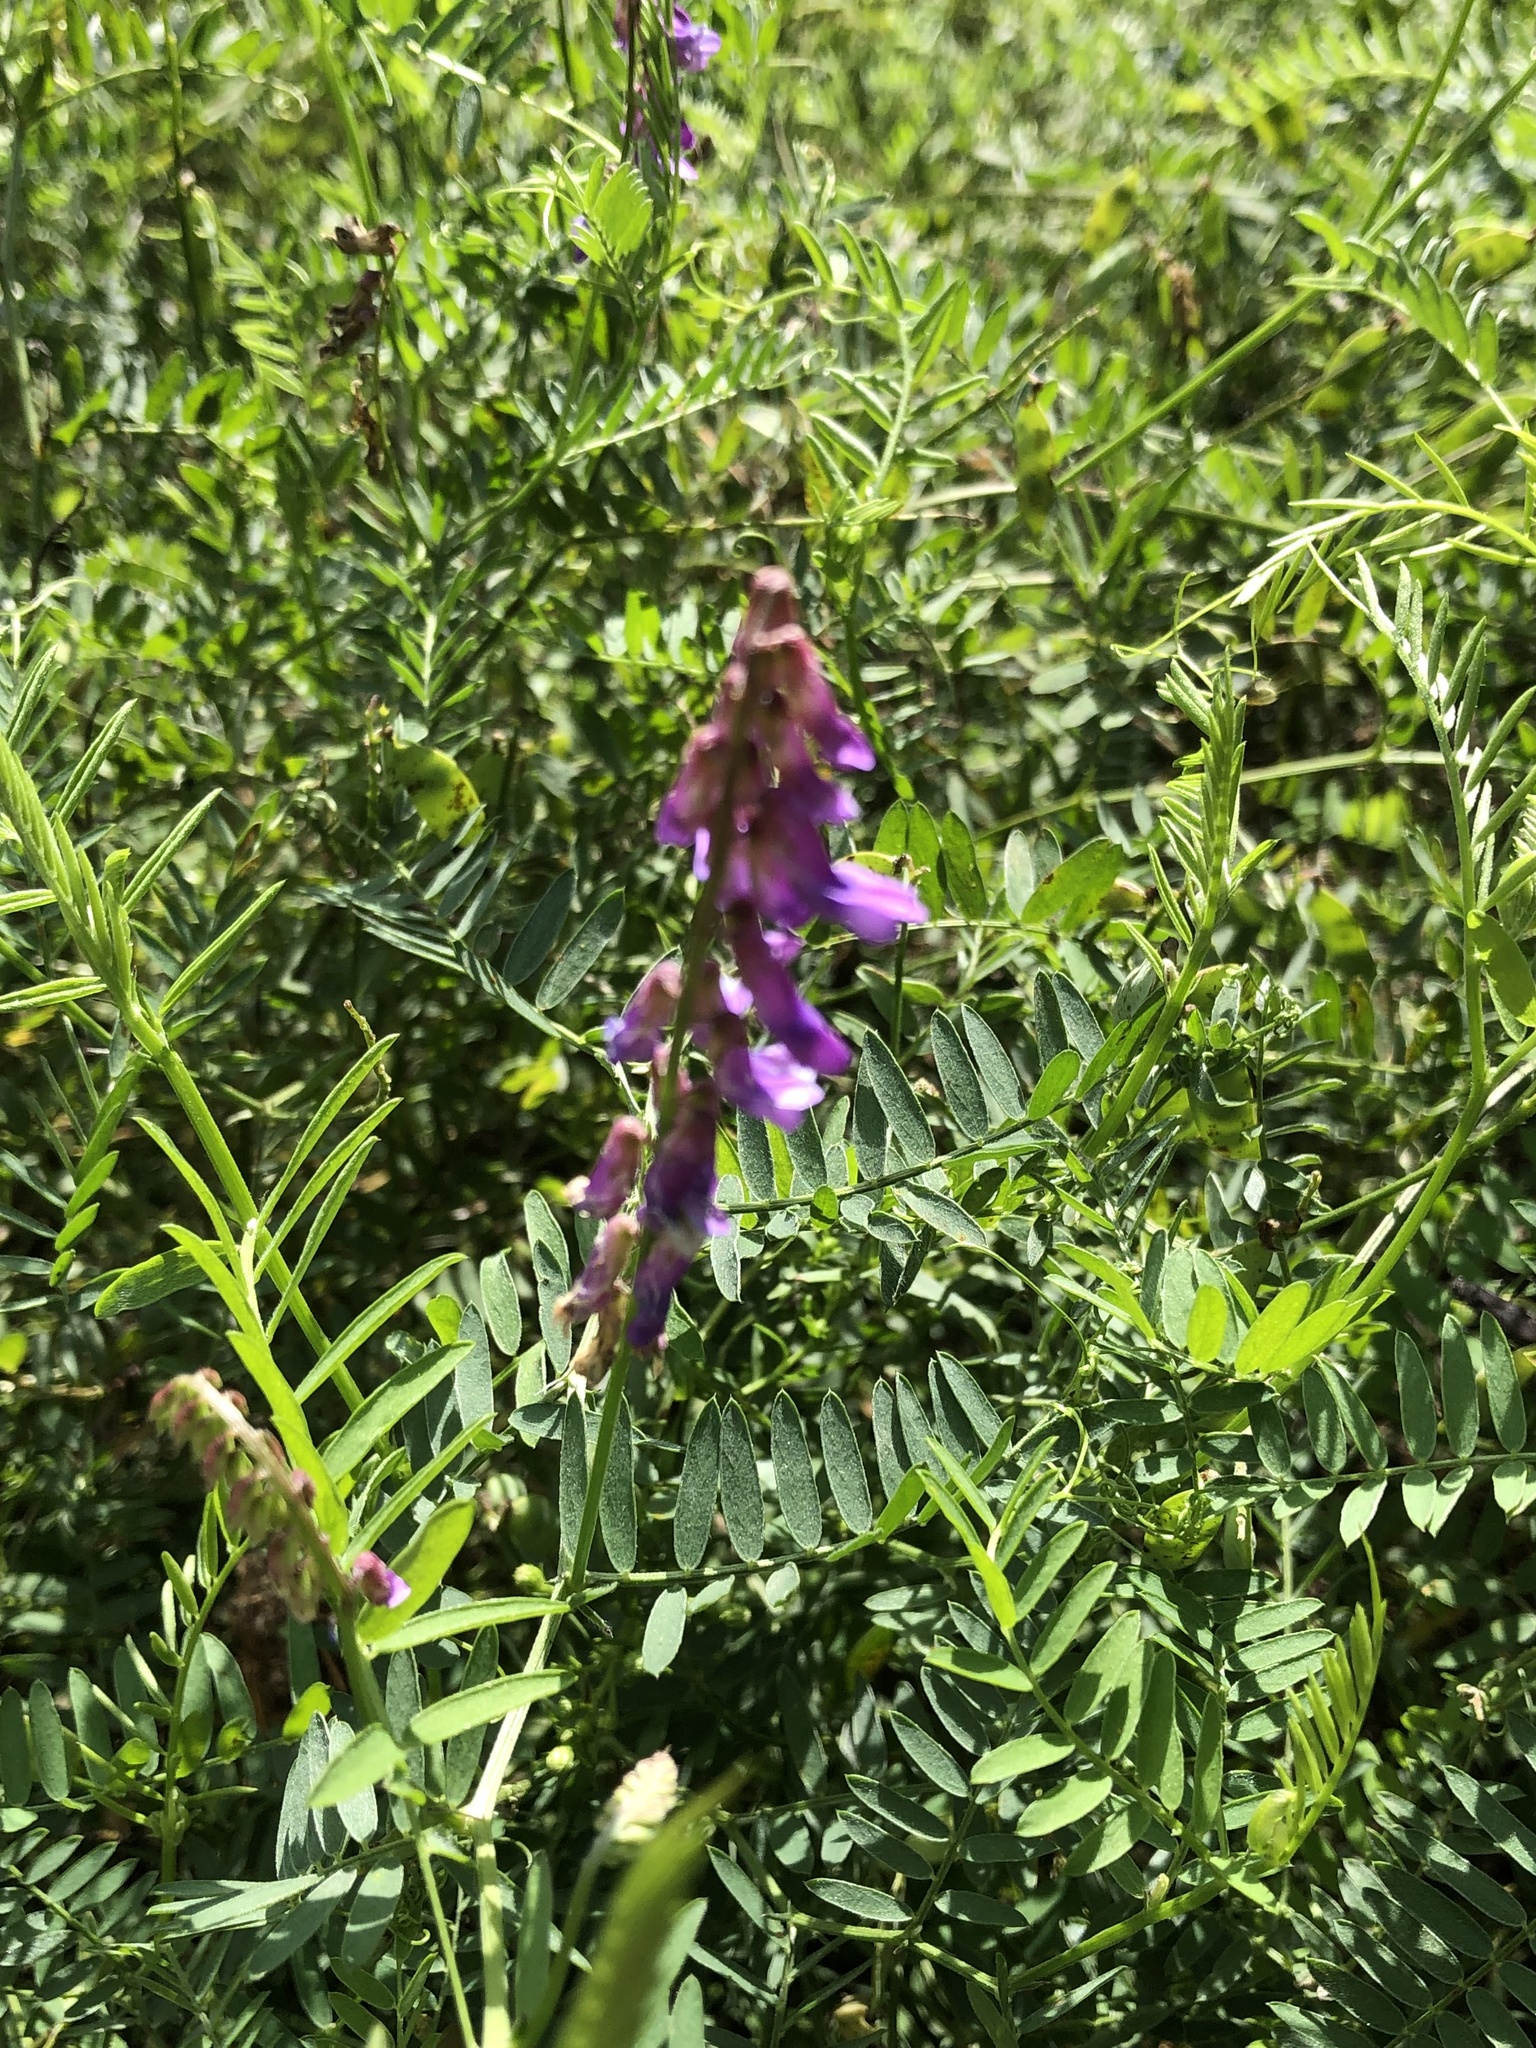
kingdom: Plantae
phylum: Tracheophyta
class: Magnoliopsida
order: Fabales
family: Fabaceae
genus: Vicia
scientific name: Vicia cracca
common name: Bird vetch
